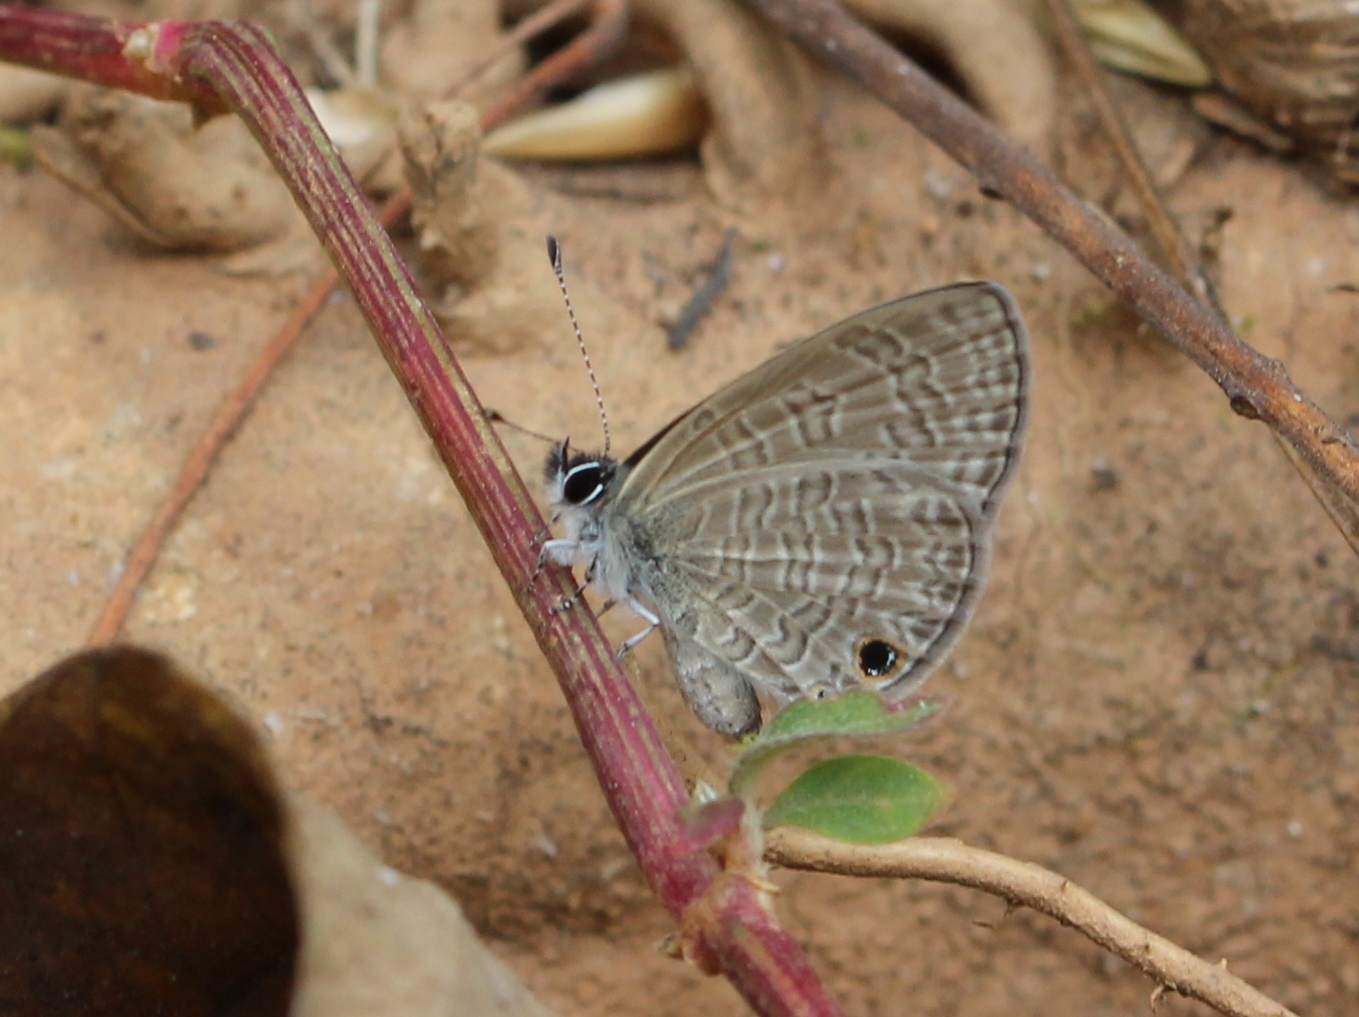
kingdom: Animalia
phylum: Arthropoda
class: Insecta
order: Lepidoptera
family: Lycaenidae
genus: Prosotas
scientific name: Prosotas dubiosa
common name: Tailless lineblue
